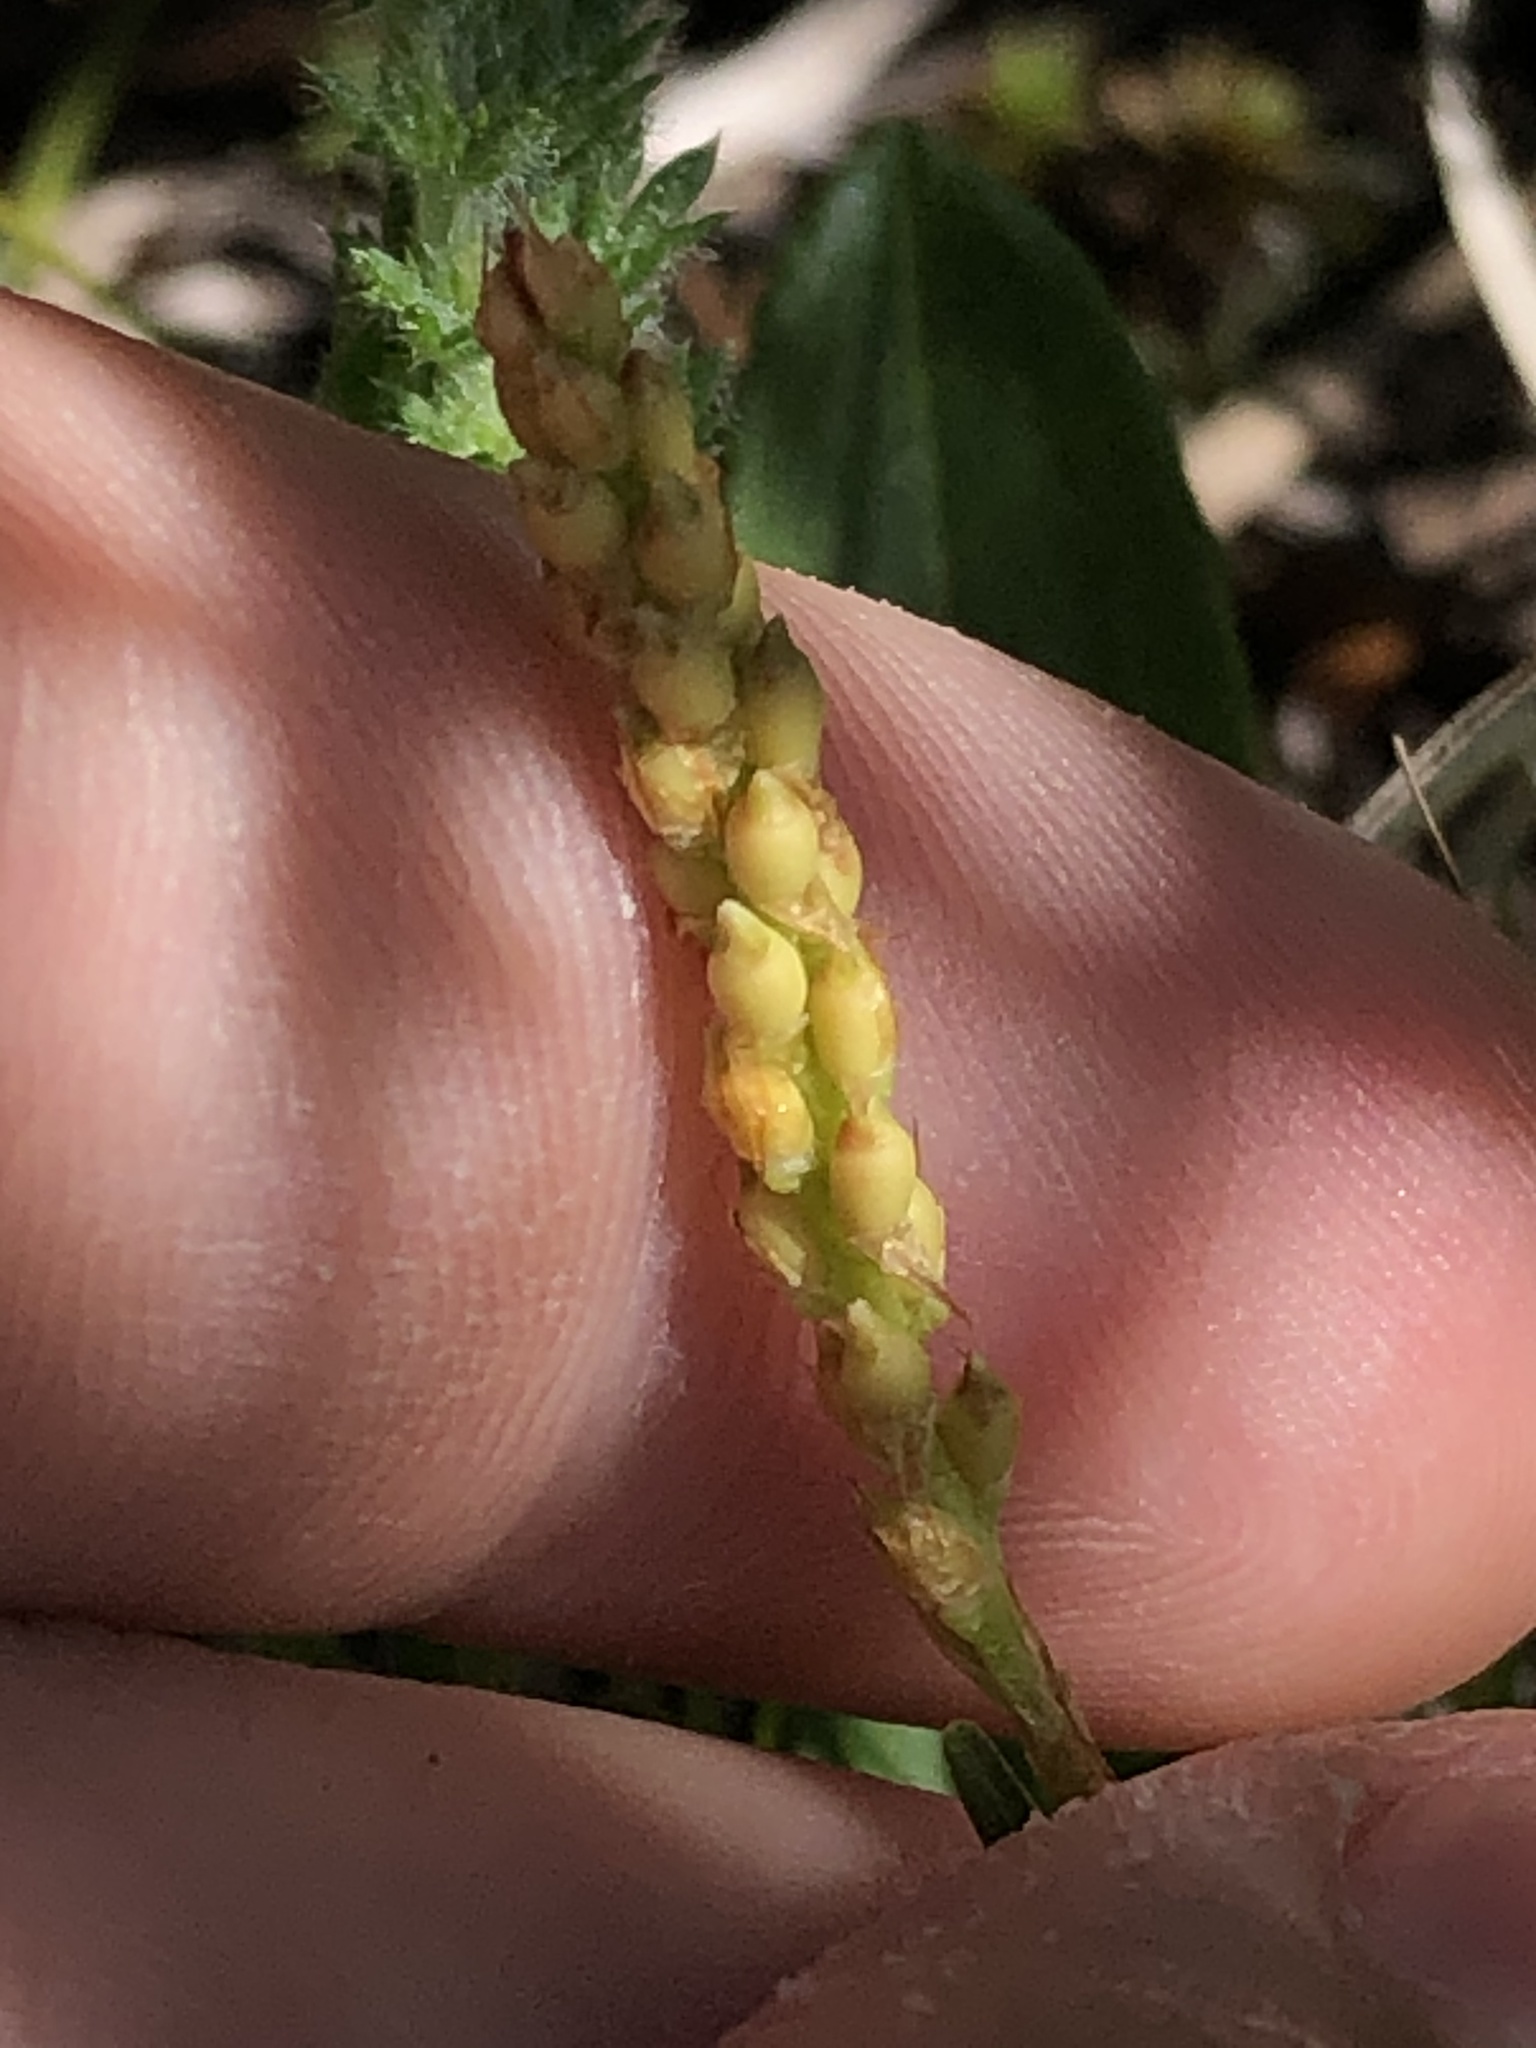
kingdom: Plantae
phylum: Tracheophyta
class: Magnoliopsida
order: Caryophyllales
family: Polygonaceae
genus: Bistorta
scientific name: Bistorta vivipara
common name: Alpine bistort
